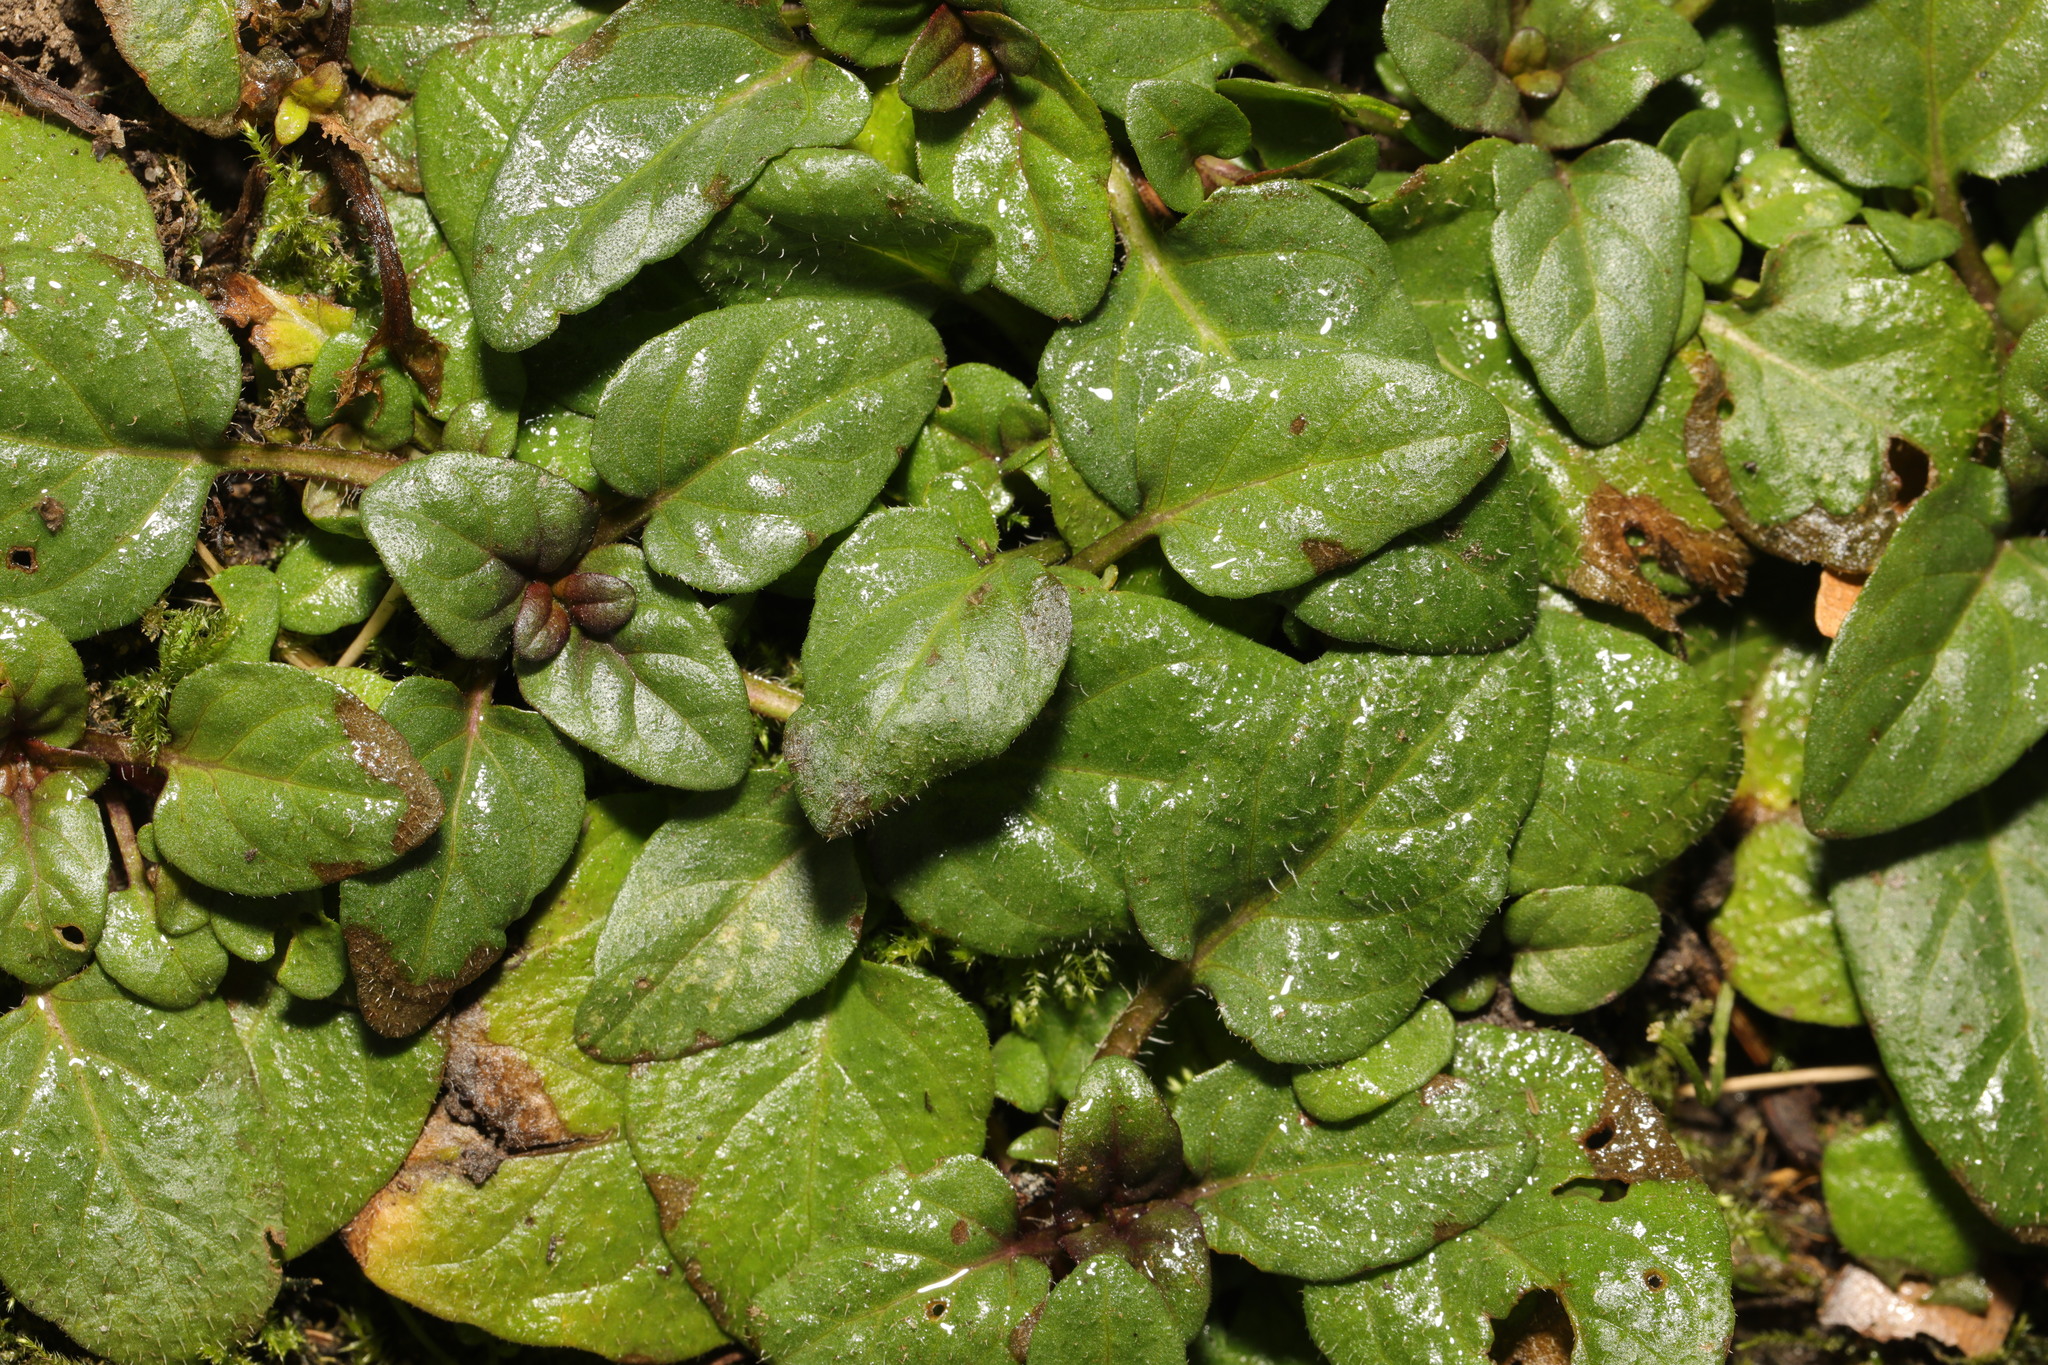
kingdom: Plantae
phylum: Tracheophyta
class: Magnoliopsida
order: Lamiales
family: Lamiaceae
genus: Prunella
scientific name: Prunella vulgaris
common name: Heal-all
